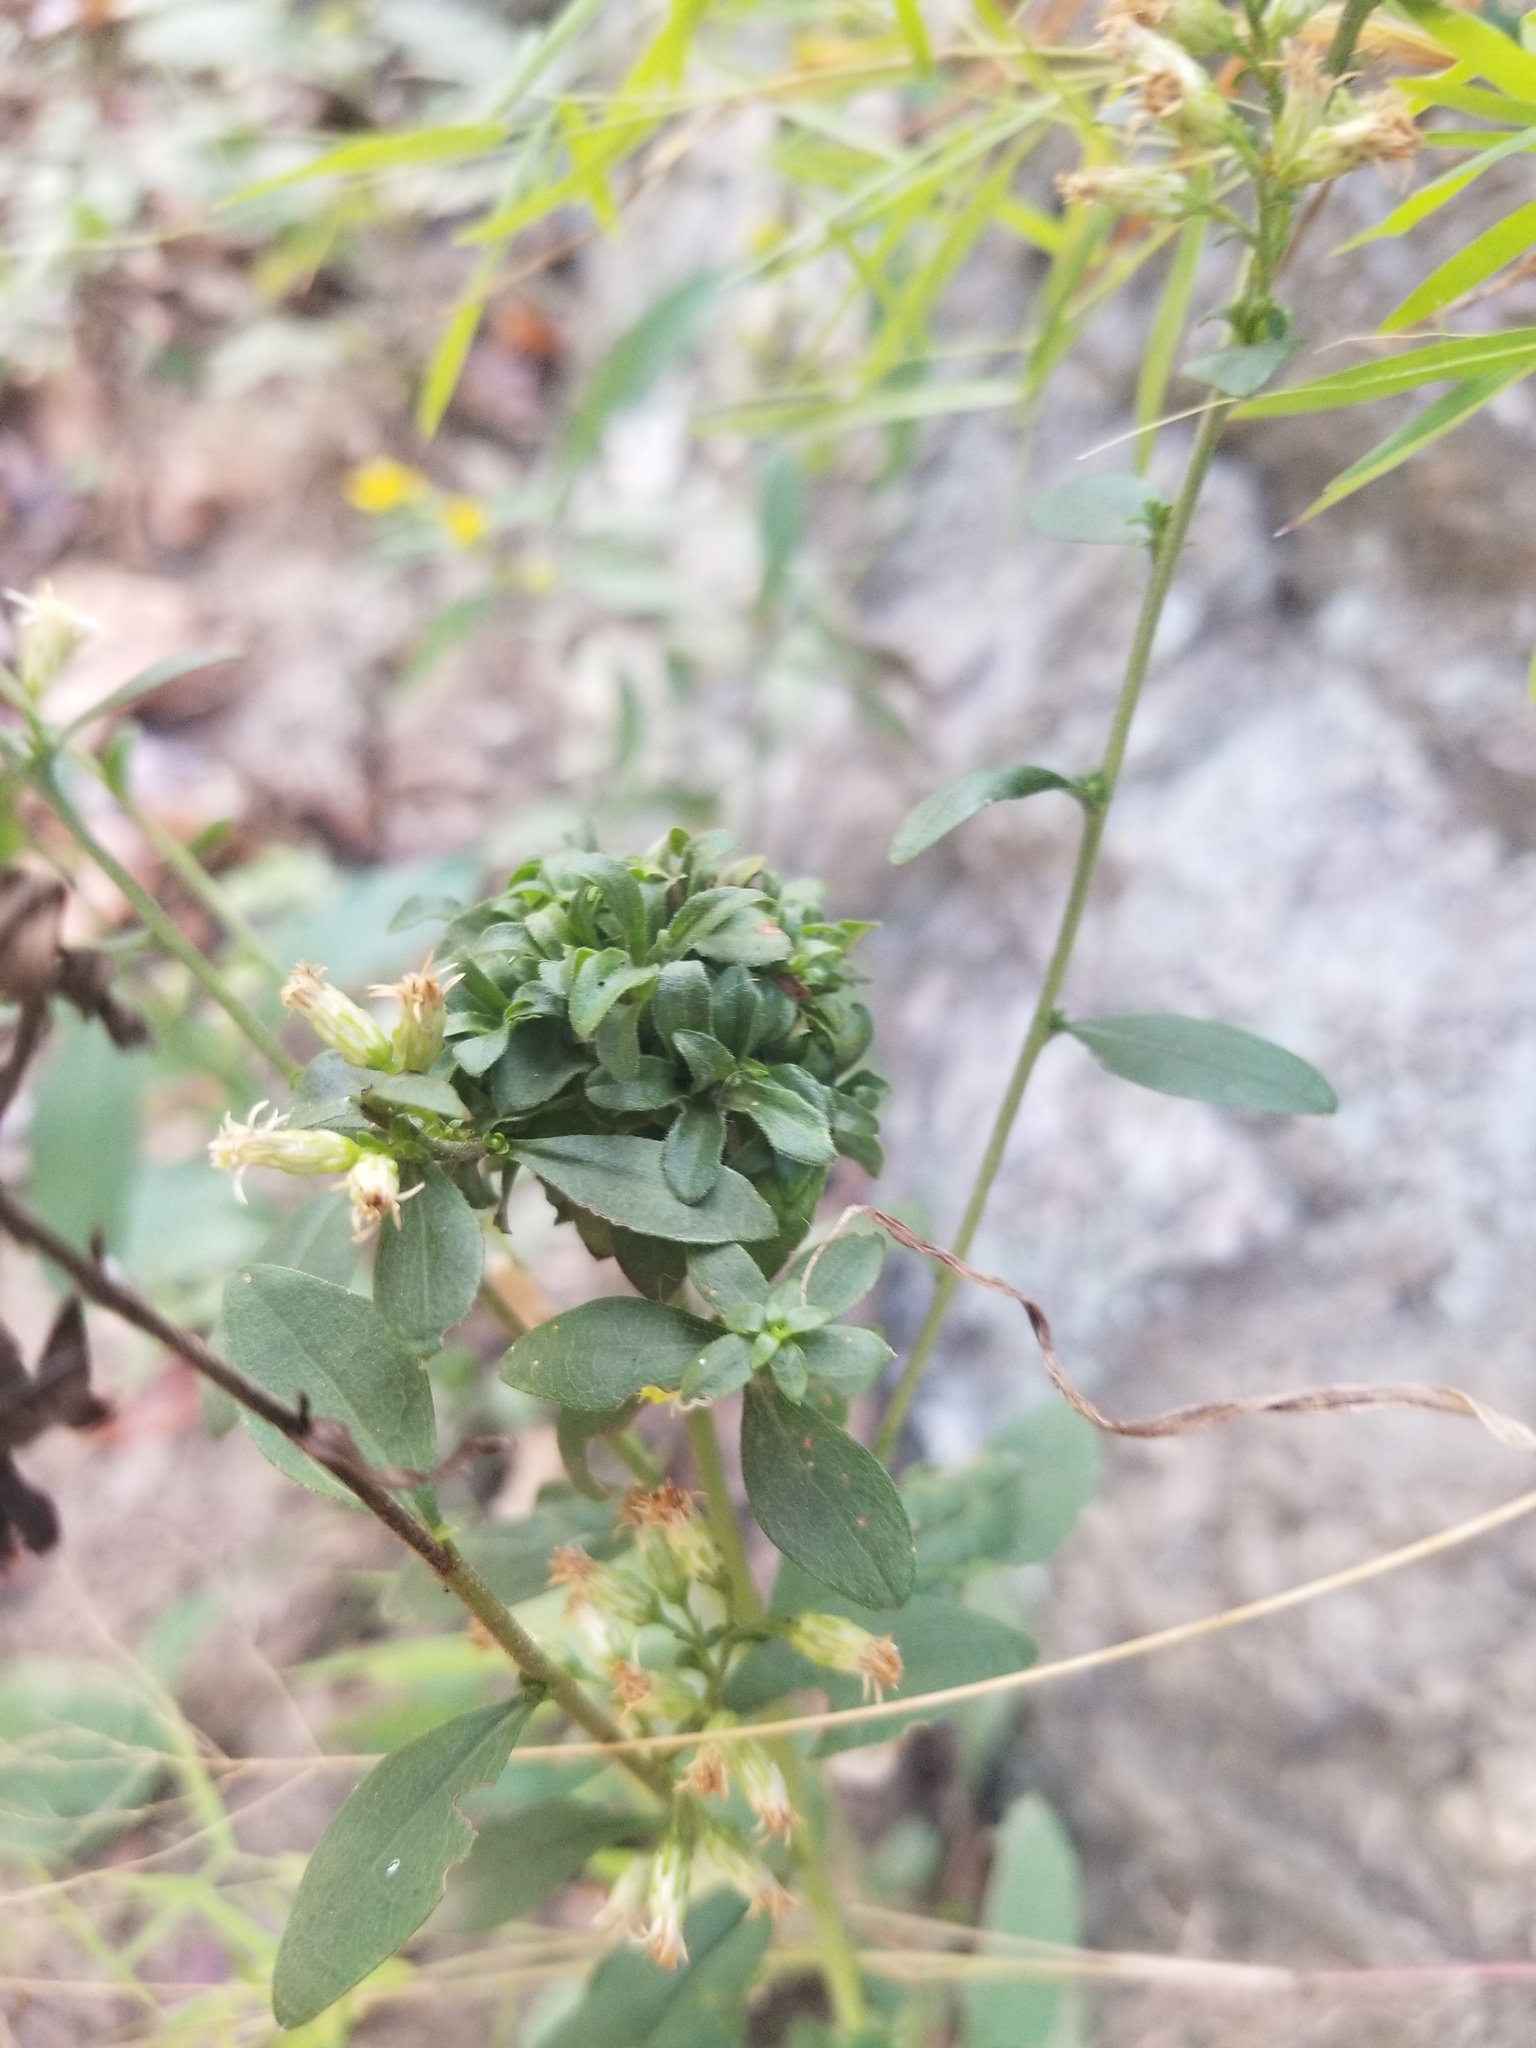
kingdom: Plantae
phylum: Tracheophyta
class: Magnoliopsida
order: Asterales
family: Asteraceae
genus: Solidago
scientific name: Solidago bicolor
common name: Silverrod
